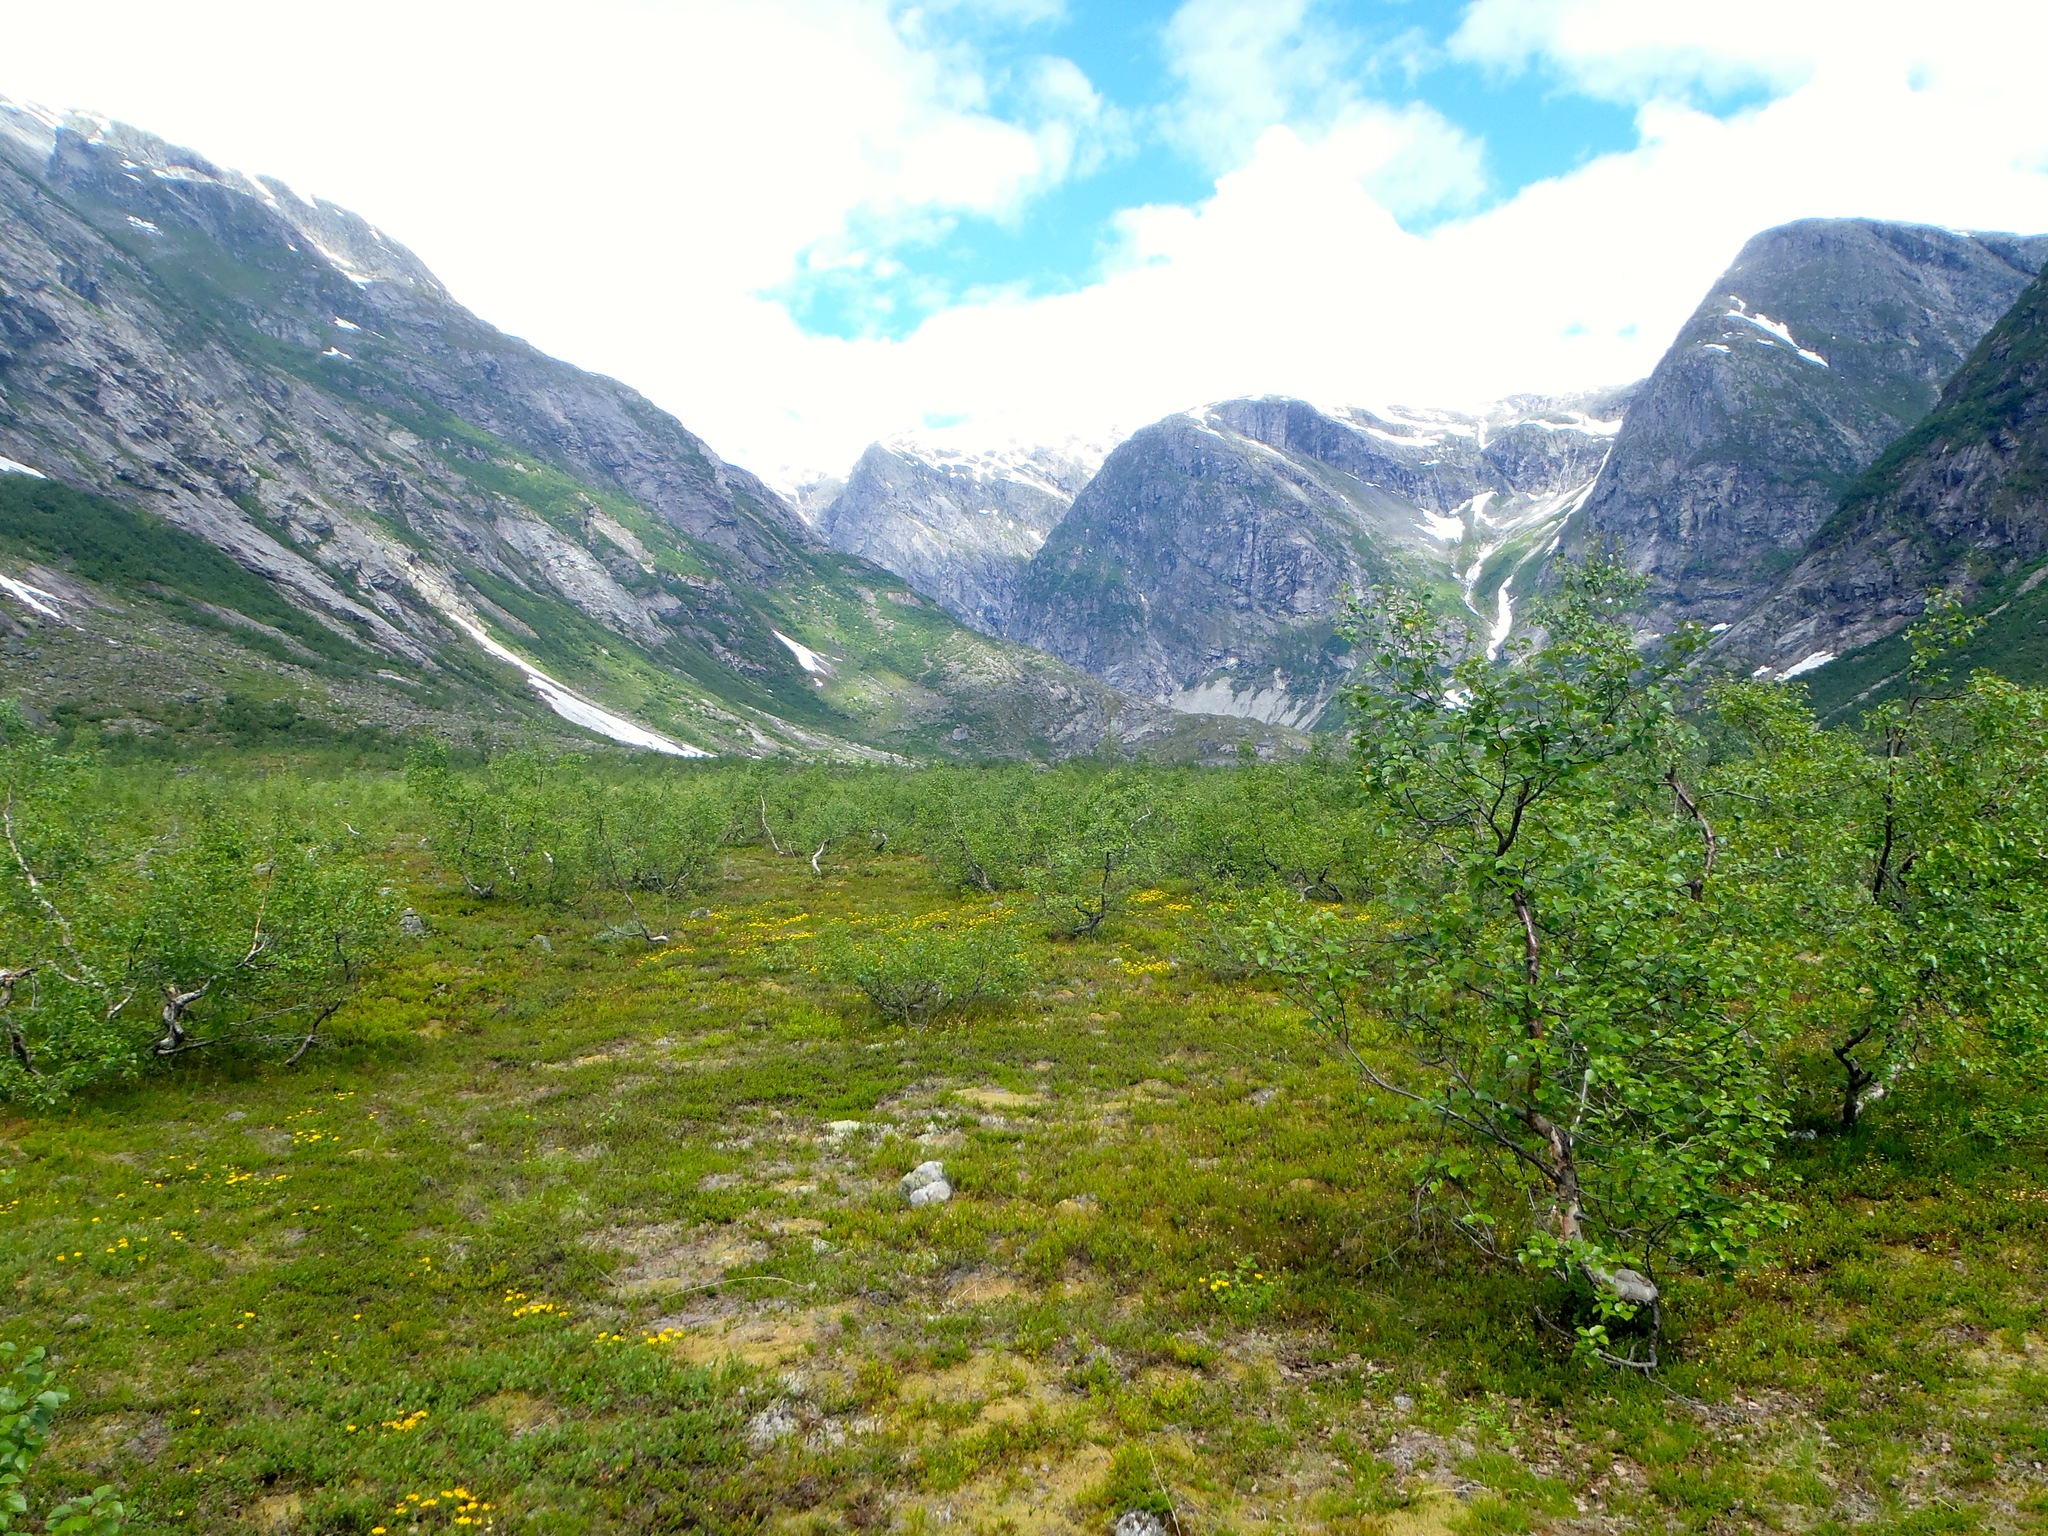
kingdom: Plantae
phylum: Tracheophyta
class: Magnoliopsida
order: Fagales
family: Betulaceae
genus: Betula
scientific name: Betula pubescens
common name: Downy birch
